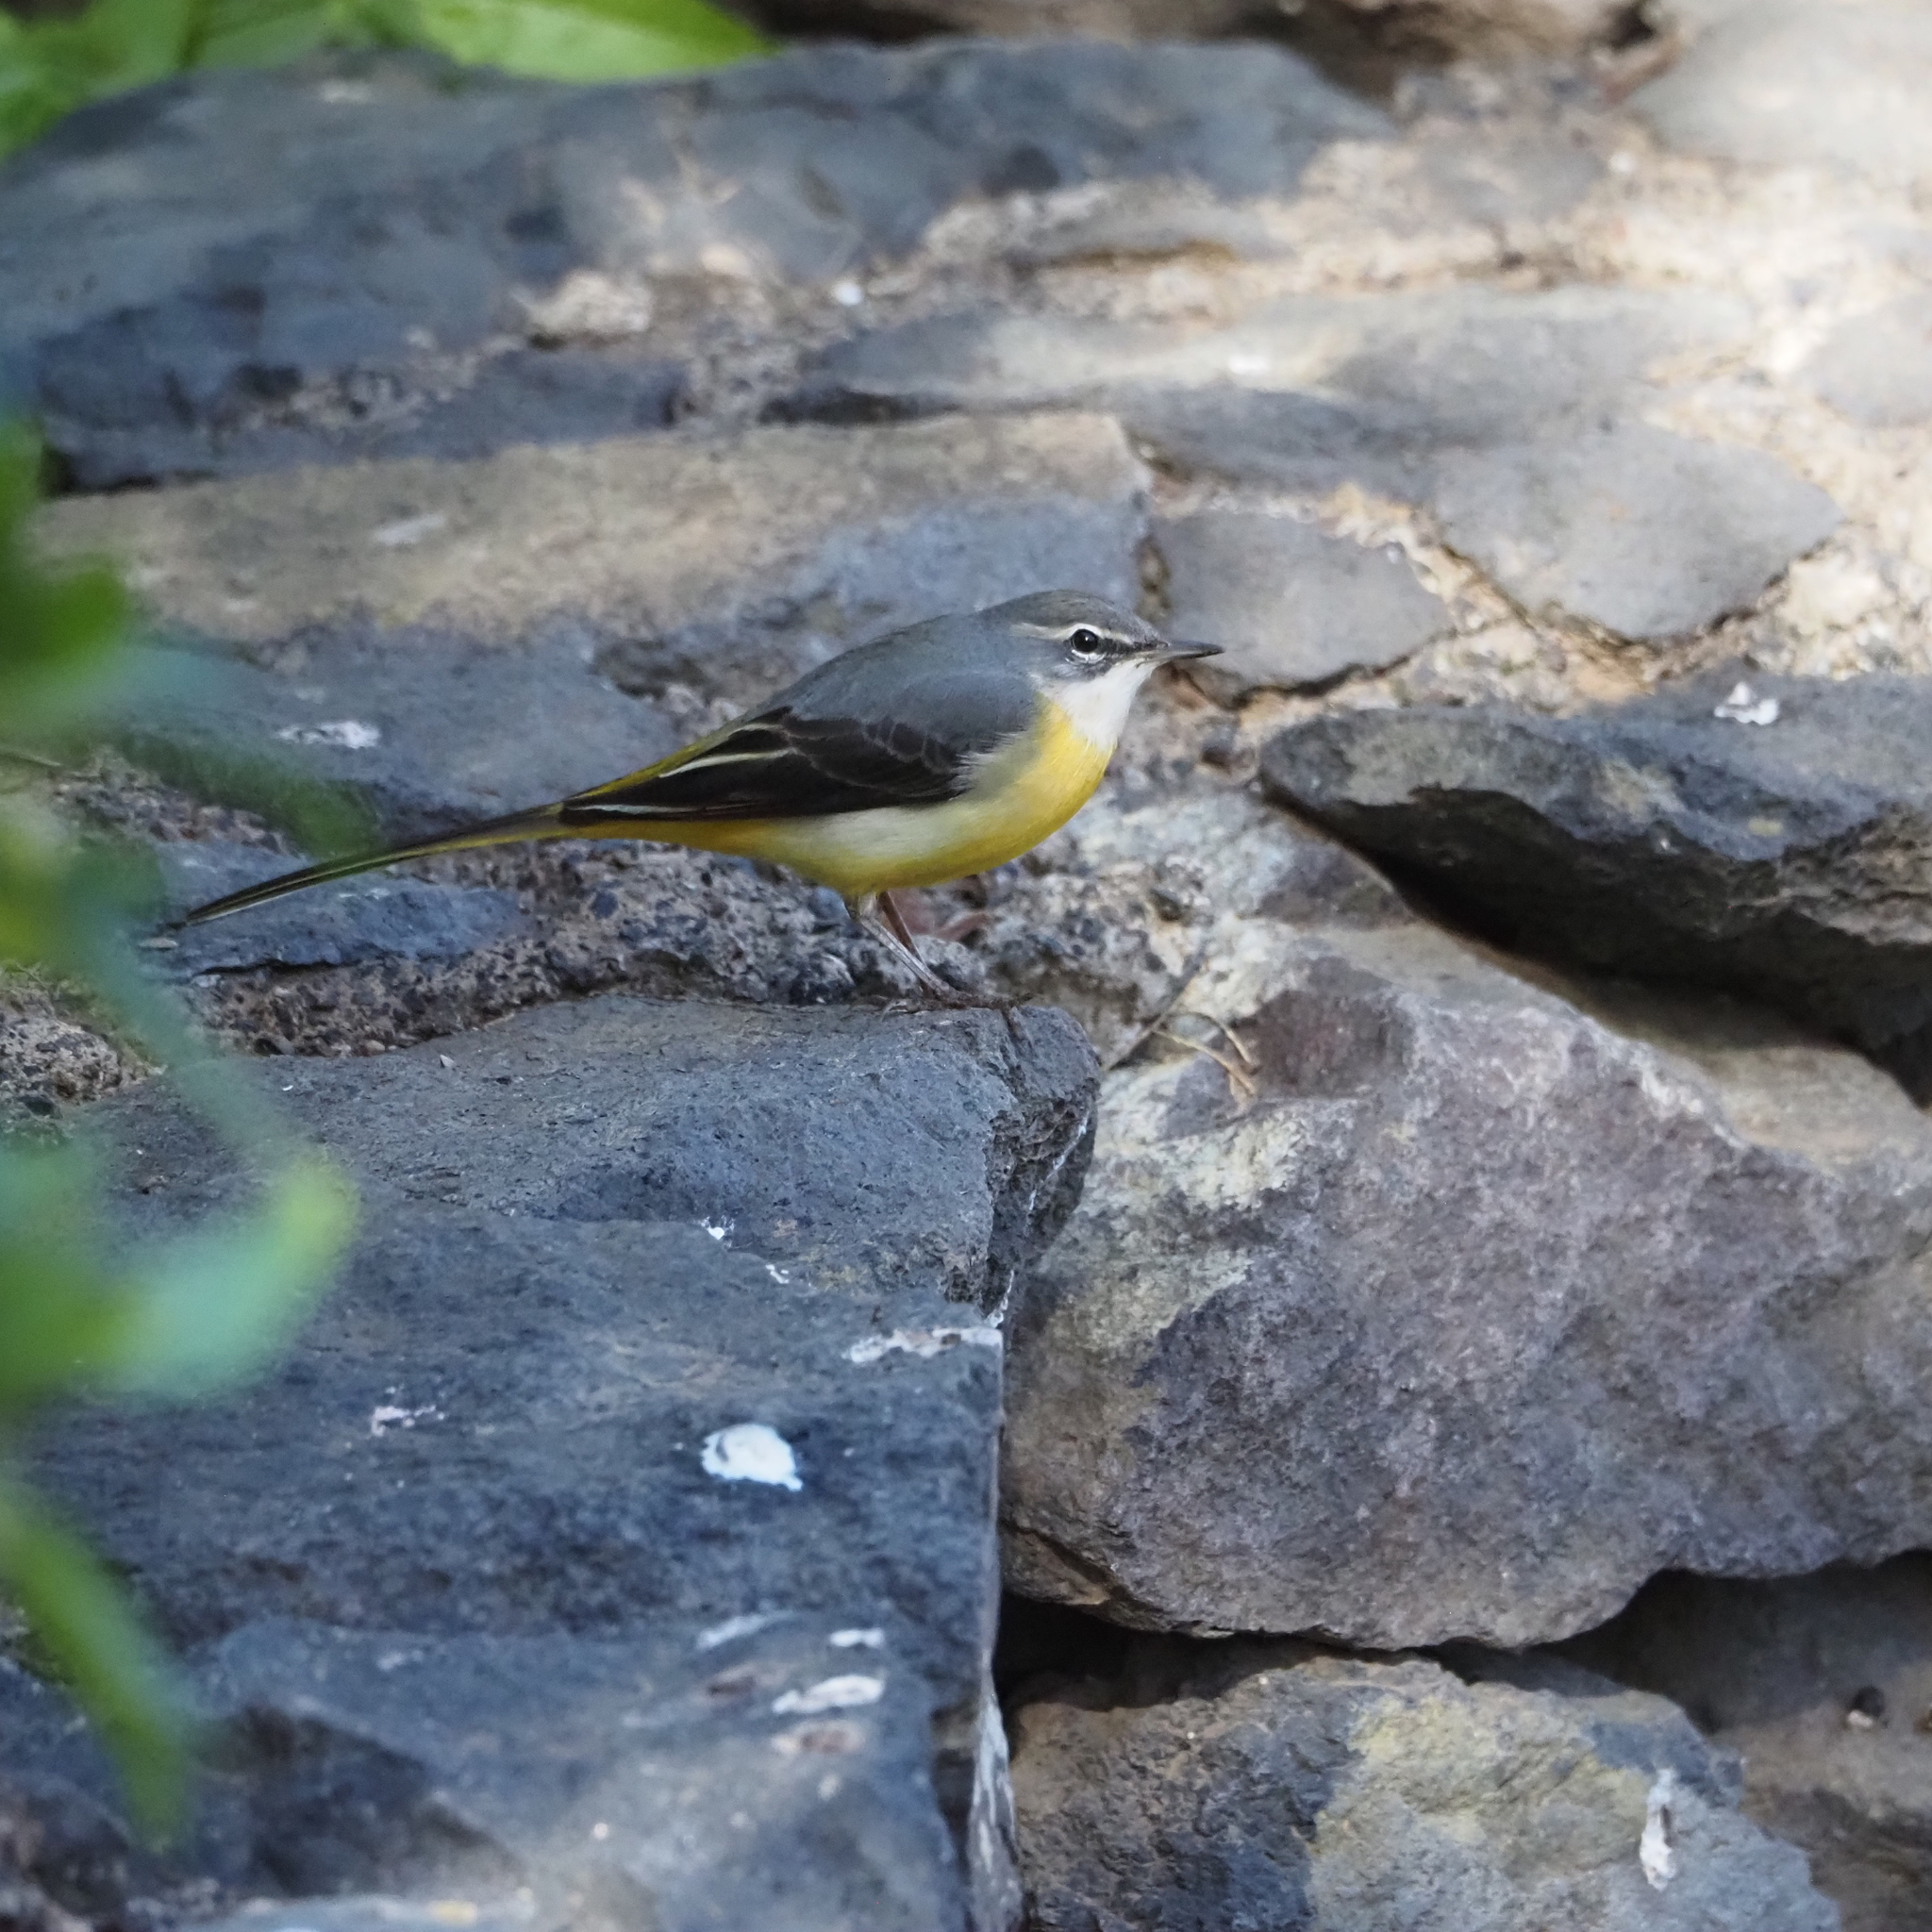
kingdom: Animalia
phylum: Chordata
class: Aves
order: Passeriformes
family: Motacillidae
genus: Motacilla
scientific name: Motacilla cinerea
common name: Grey wagtail
